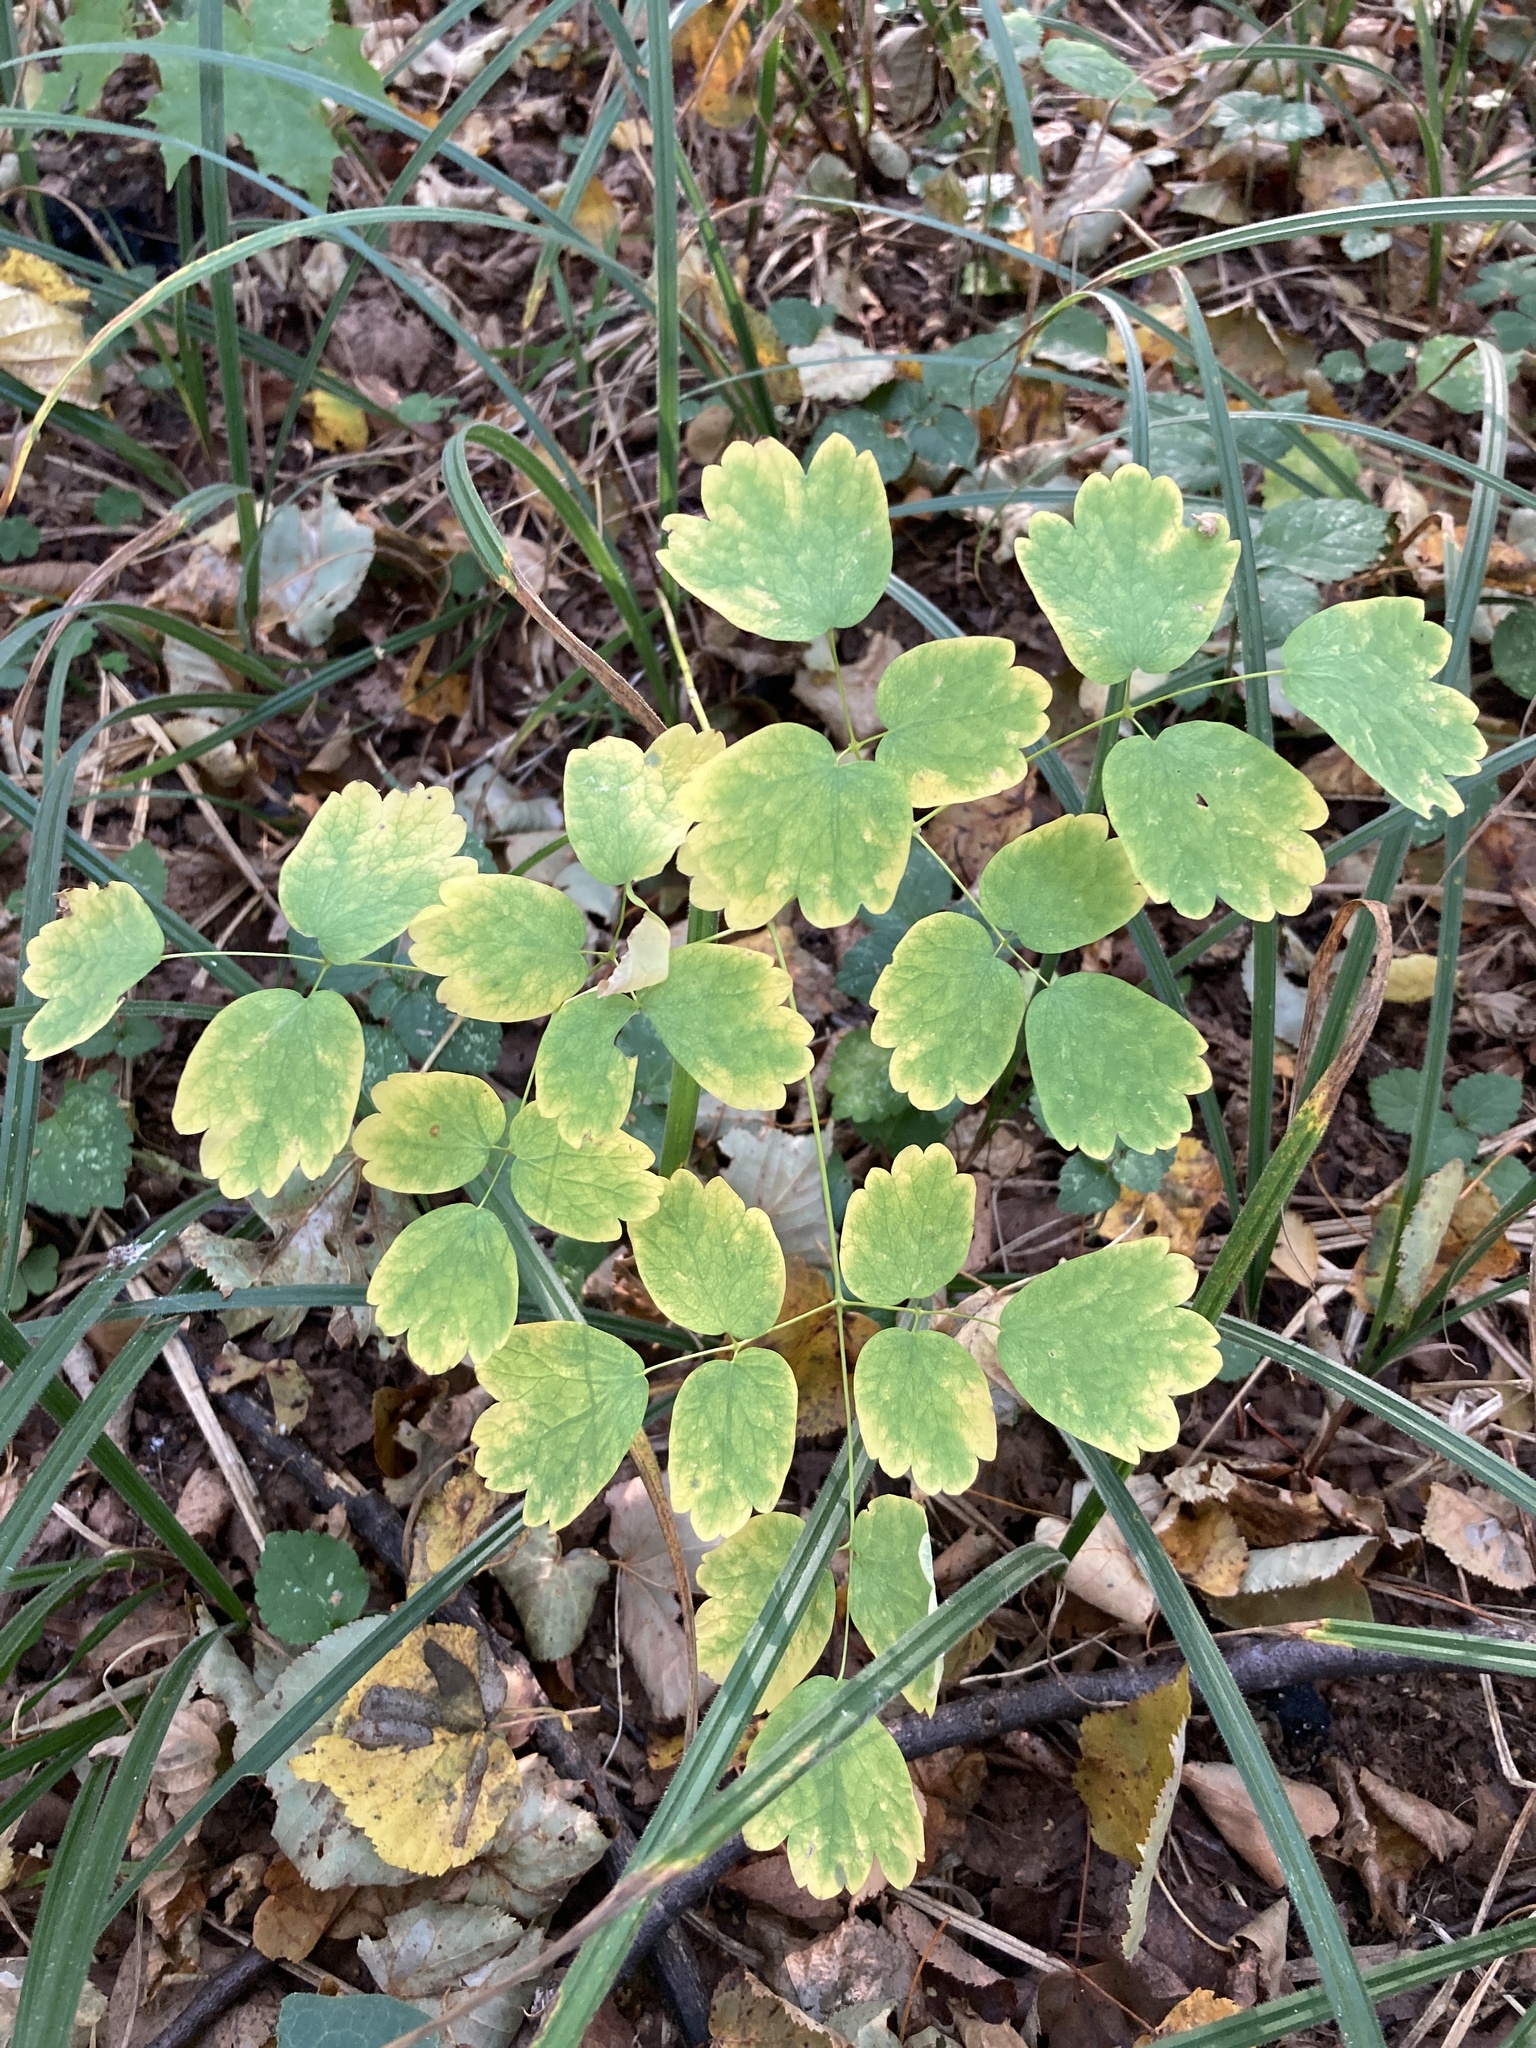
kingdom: Plantae
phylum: Tracheophyta
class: Magnoliopsida
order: Ranunculales
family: Ranunculaceae
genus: Thalictrum
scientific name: Thalictrum minus
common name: Lesser meadow-rue
